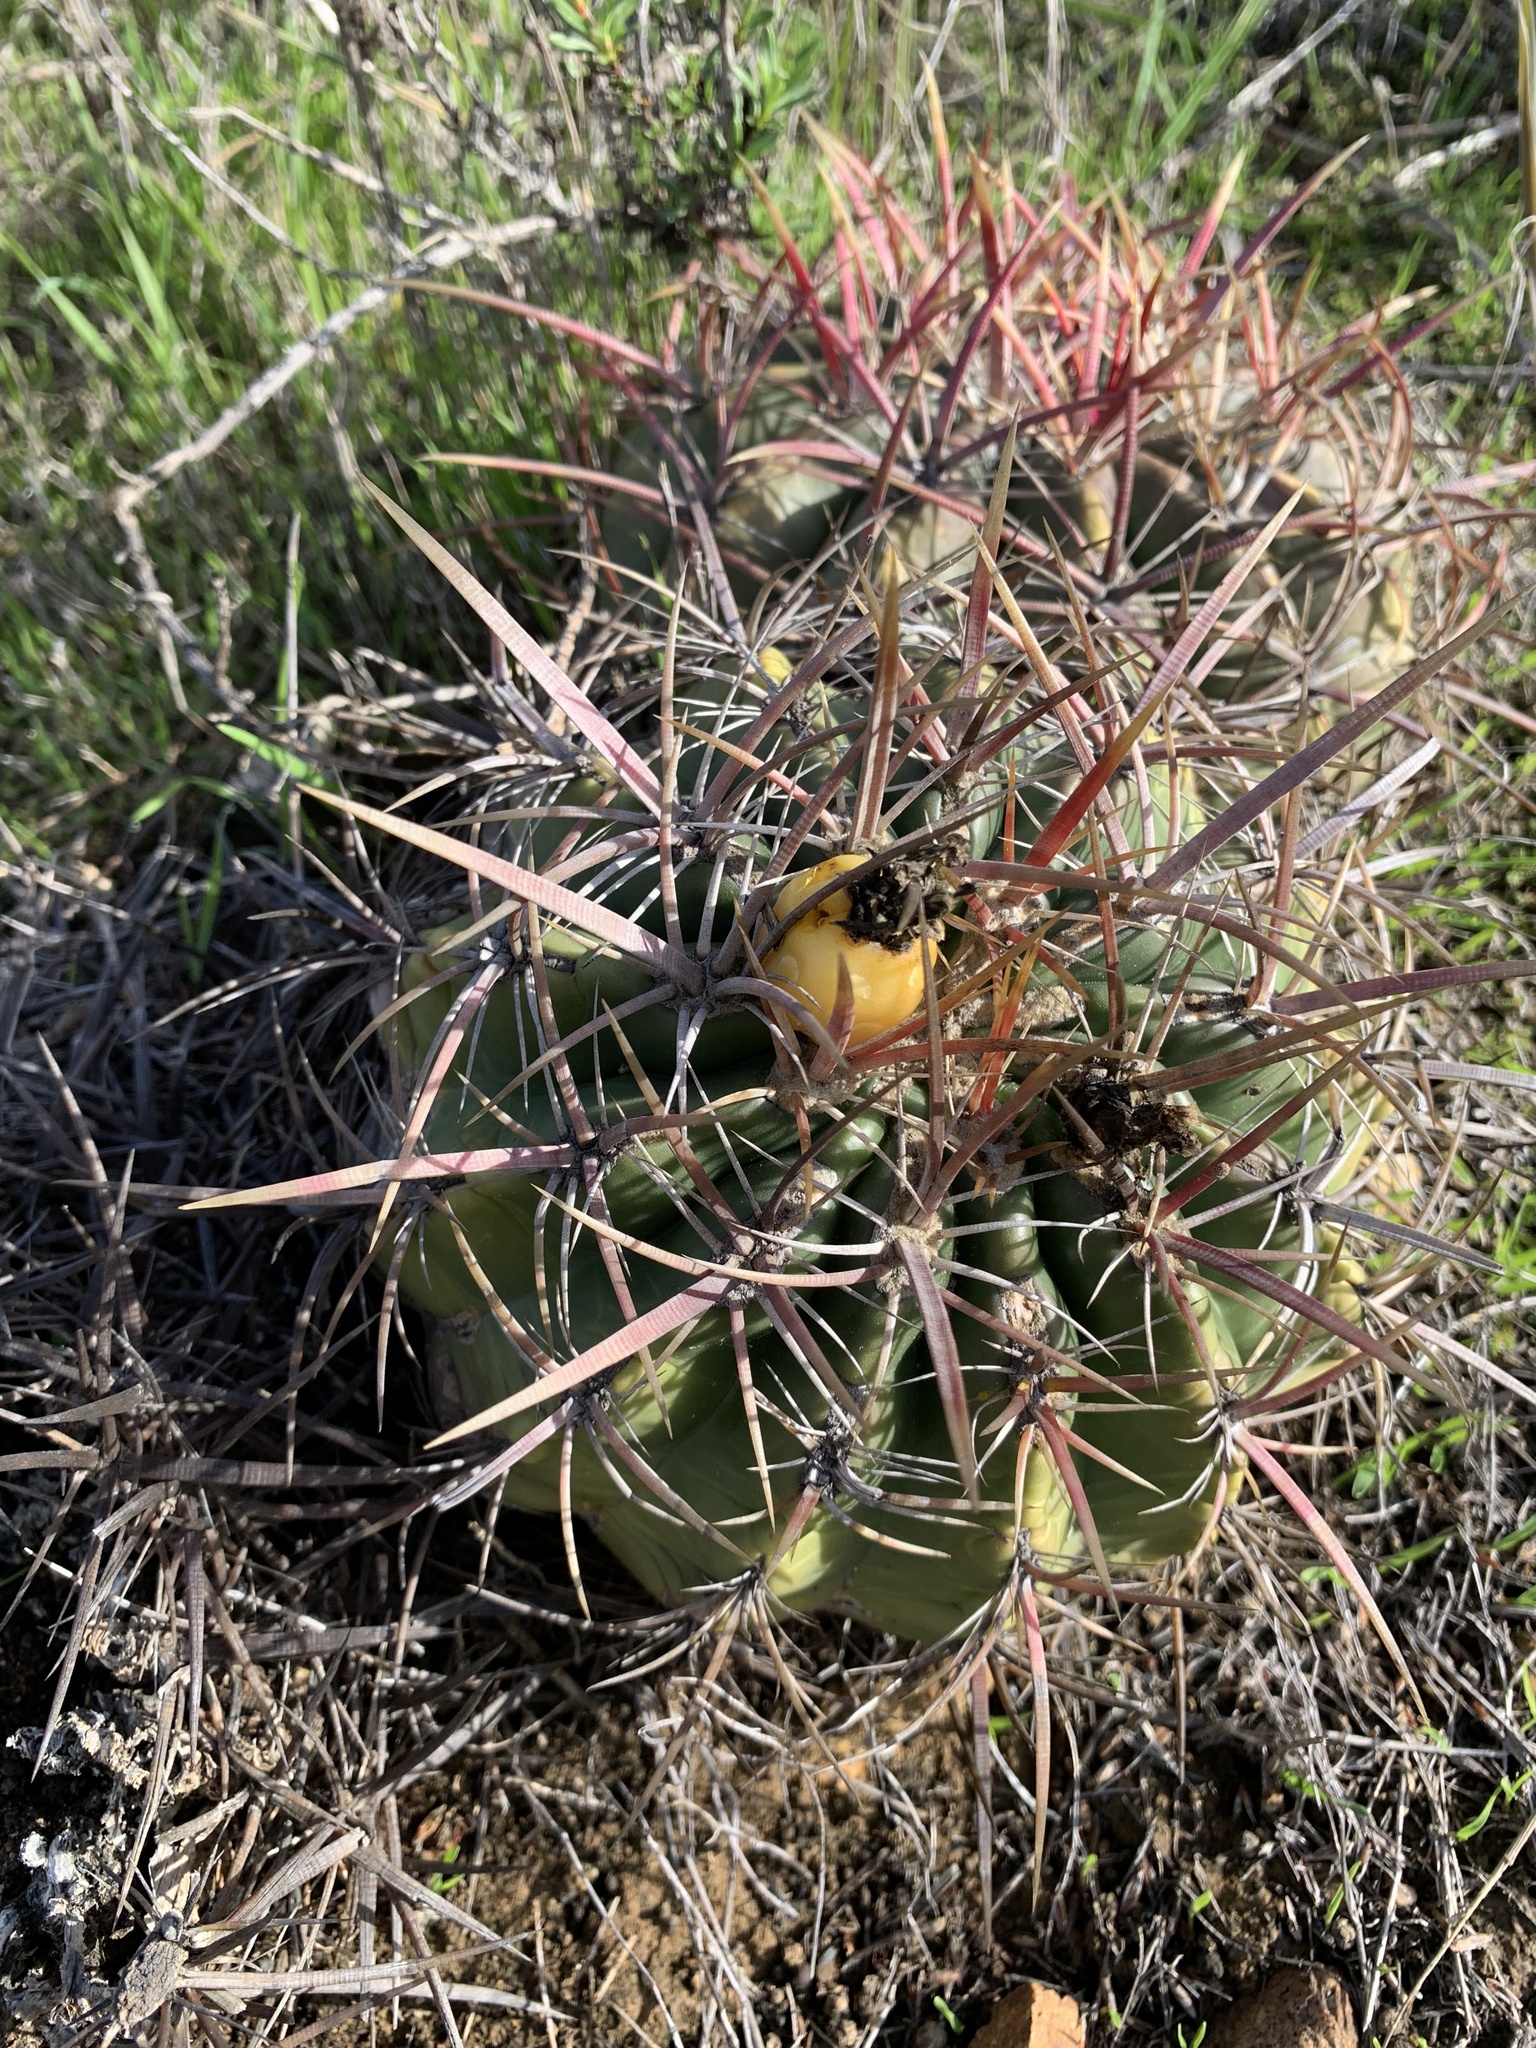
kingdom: Plantae
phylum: Tracheophyta
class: Magnoliopsida
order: Caryophyllales
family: Cactaceae
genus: Ferocactus
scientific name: Ferocactus viridescens
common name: San diego barrel cactus
